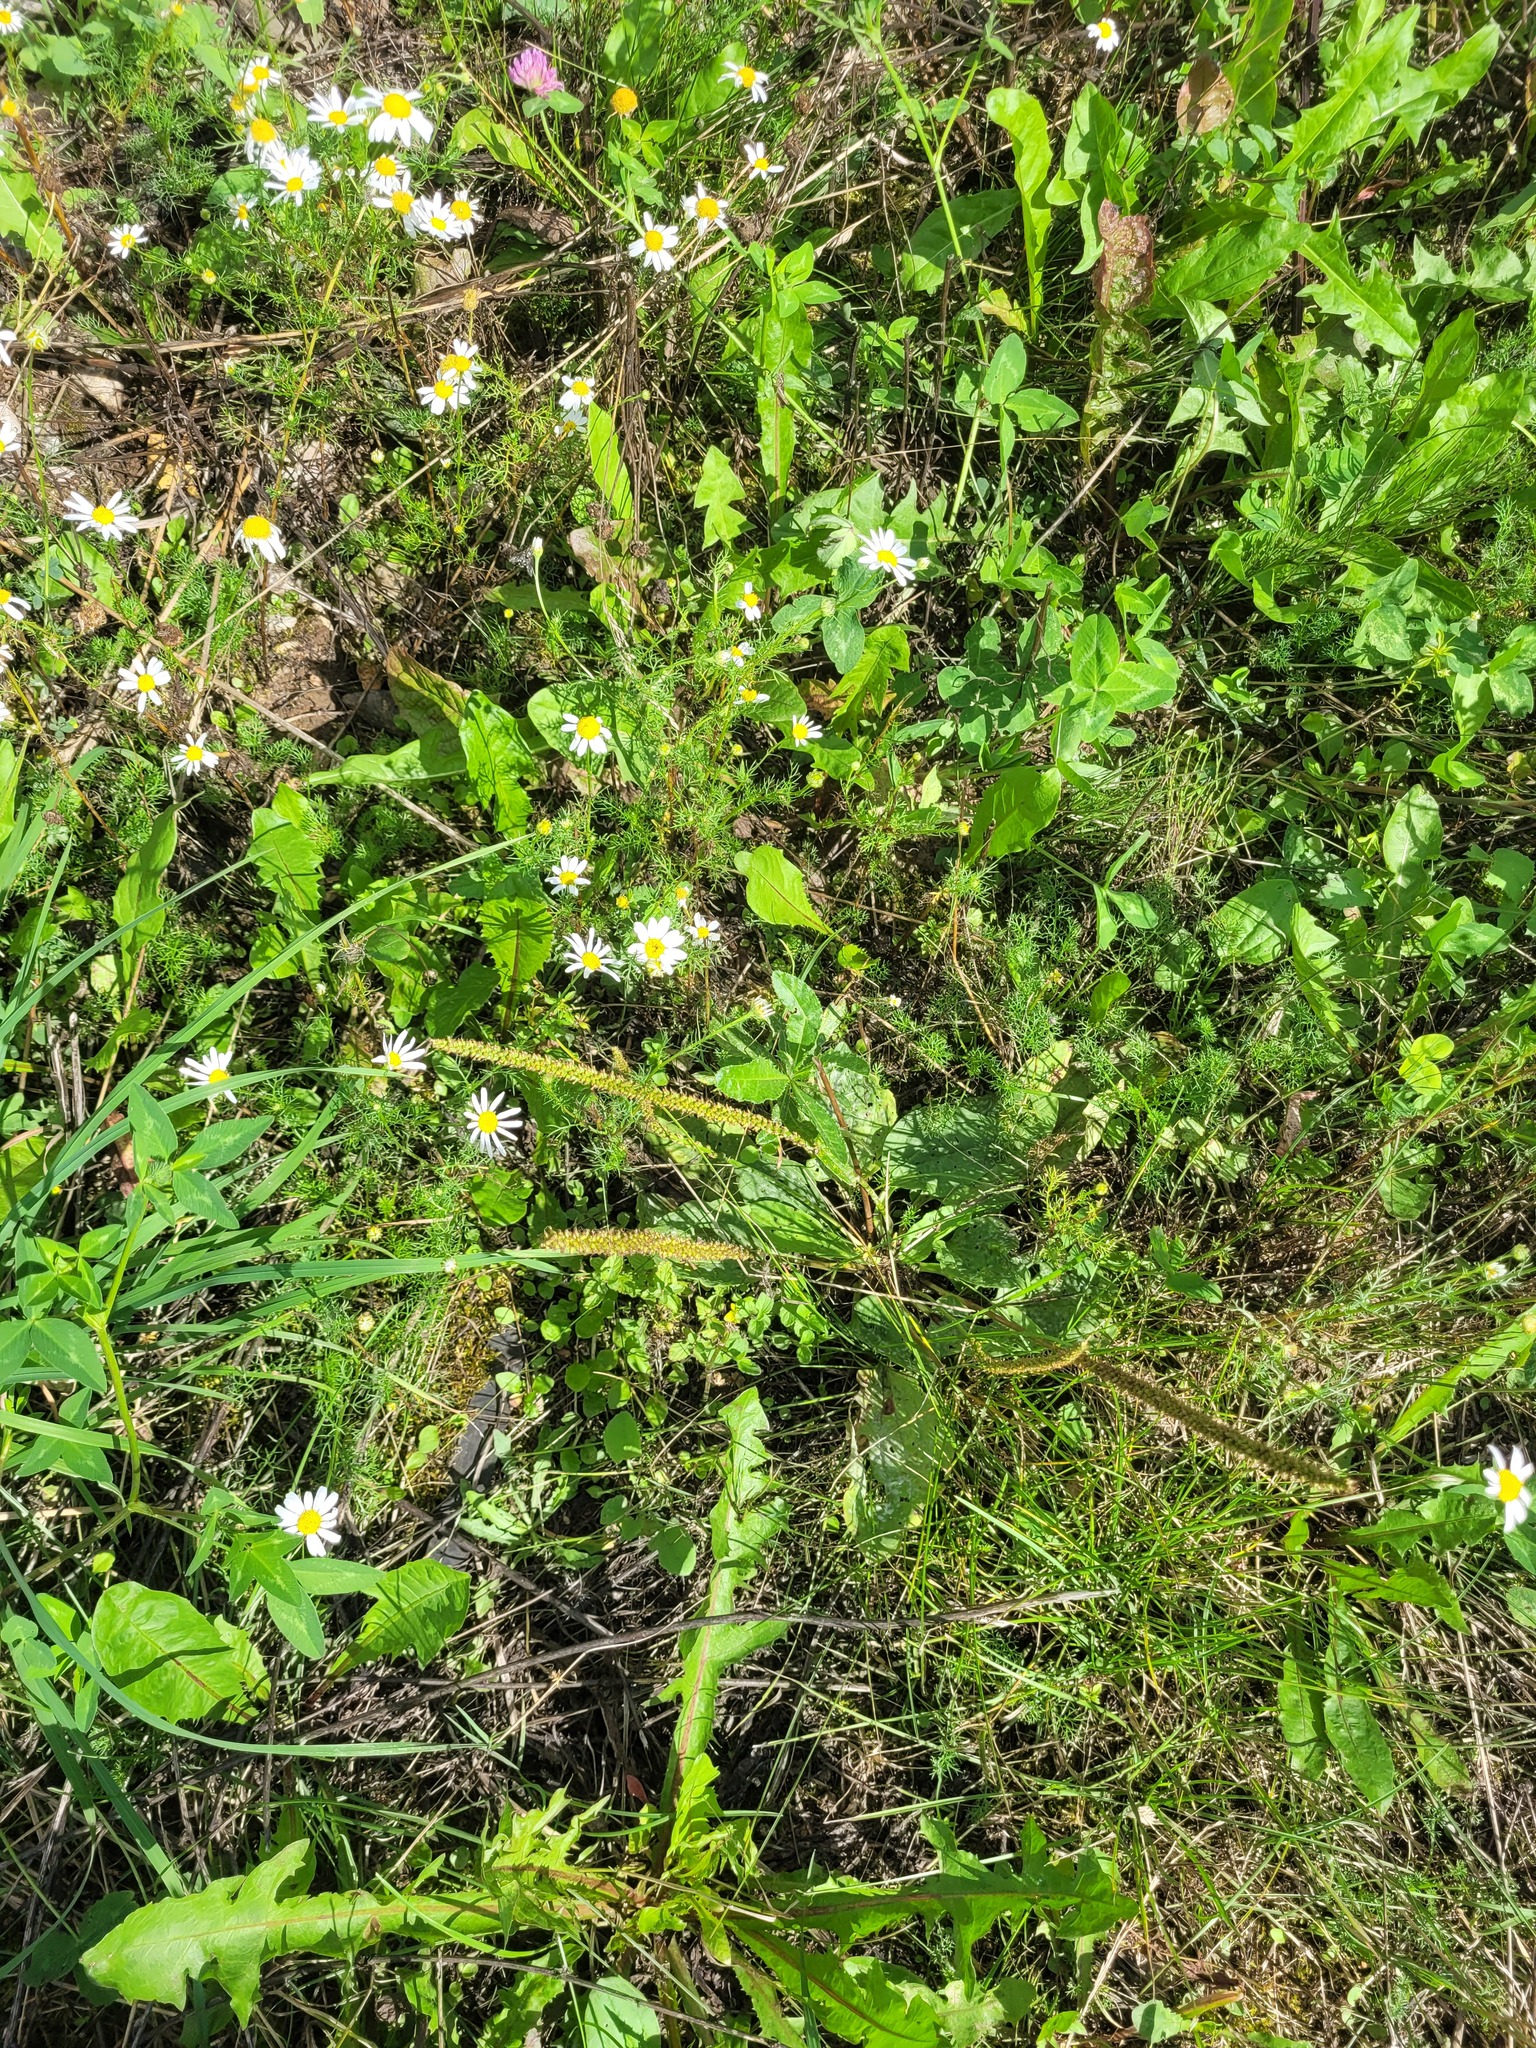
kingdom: Plantae
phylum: Tracheophyta
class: Magnoliopsida
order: Lamiales
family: Plantaginaceae
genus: Plantago
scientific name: Plantago major
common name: Common plantain
